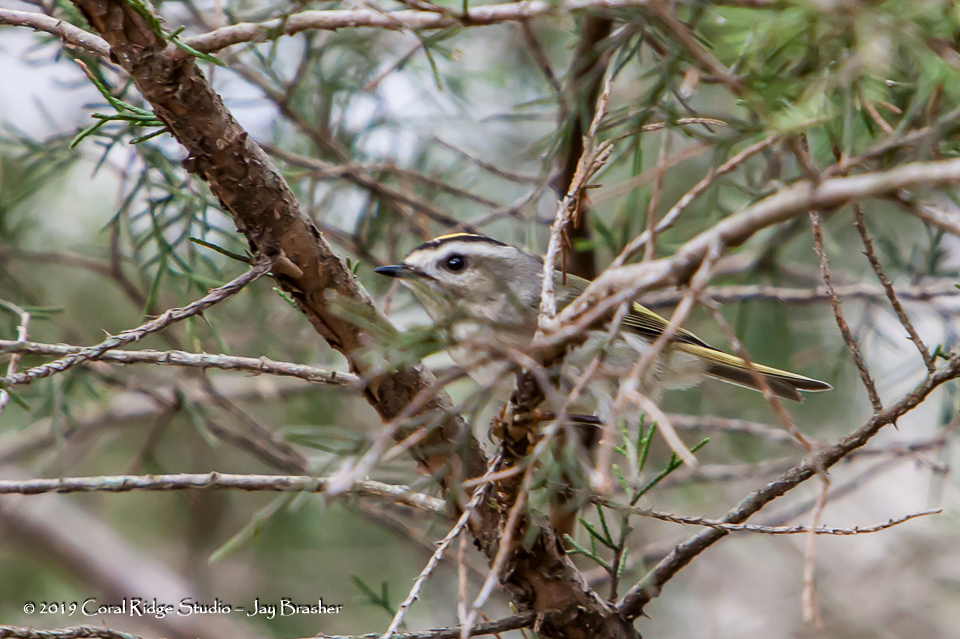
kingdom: Animalia
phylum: Chordata
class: Aves
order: Passeriformes
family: Regulidae
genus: Regulus
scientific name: Regulus satrapa
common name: Golden-crowned kinglet
